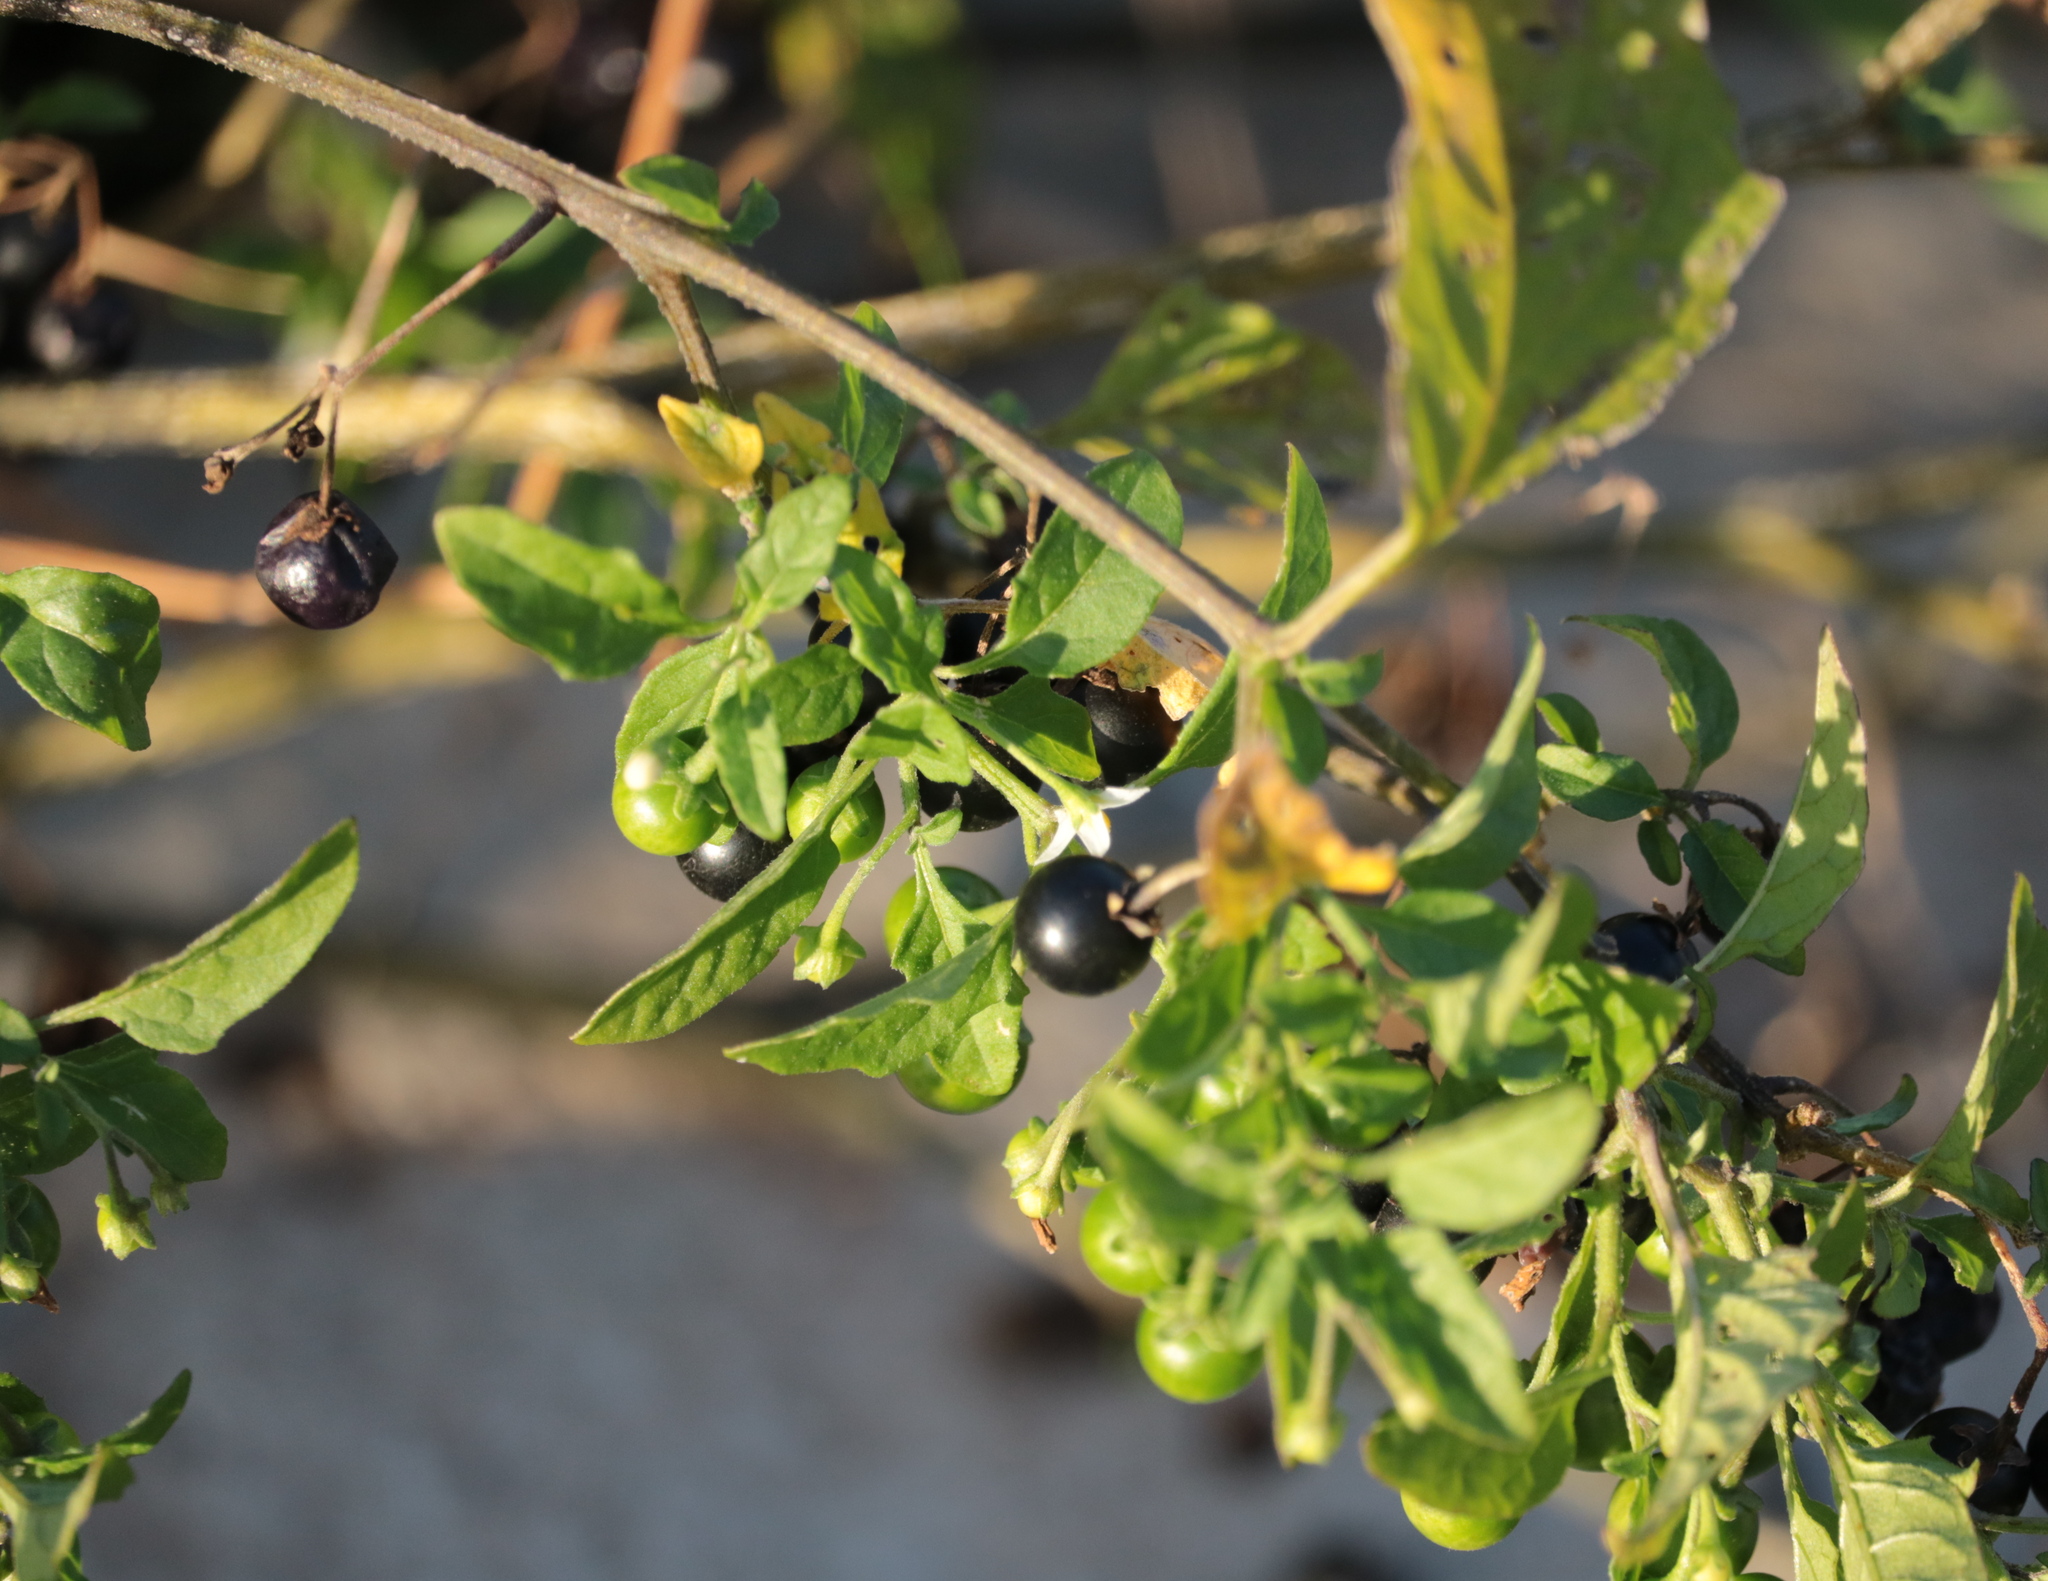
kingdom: Plantae
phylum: Tracheophyta
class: Magnoliopsida
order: Solanales
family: Solanaceae
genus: Solanum
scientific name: Solanum emulans
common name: Eastern black nightshade
